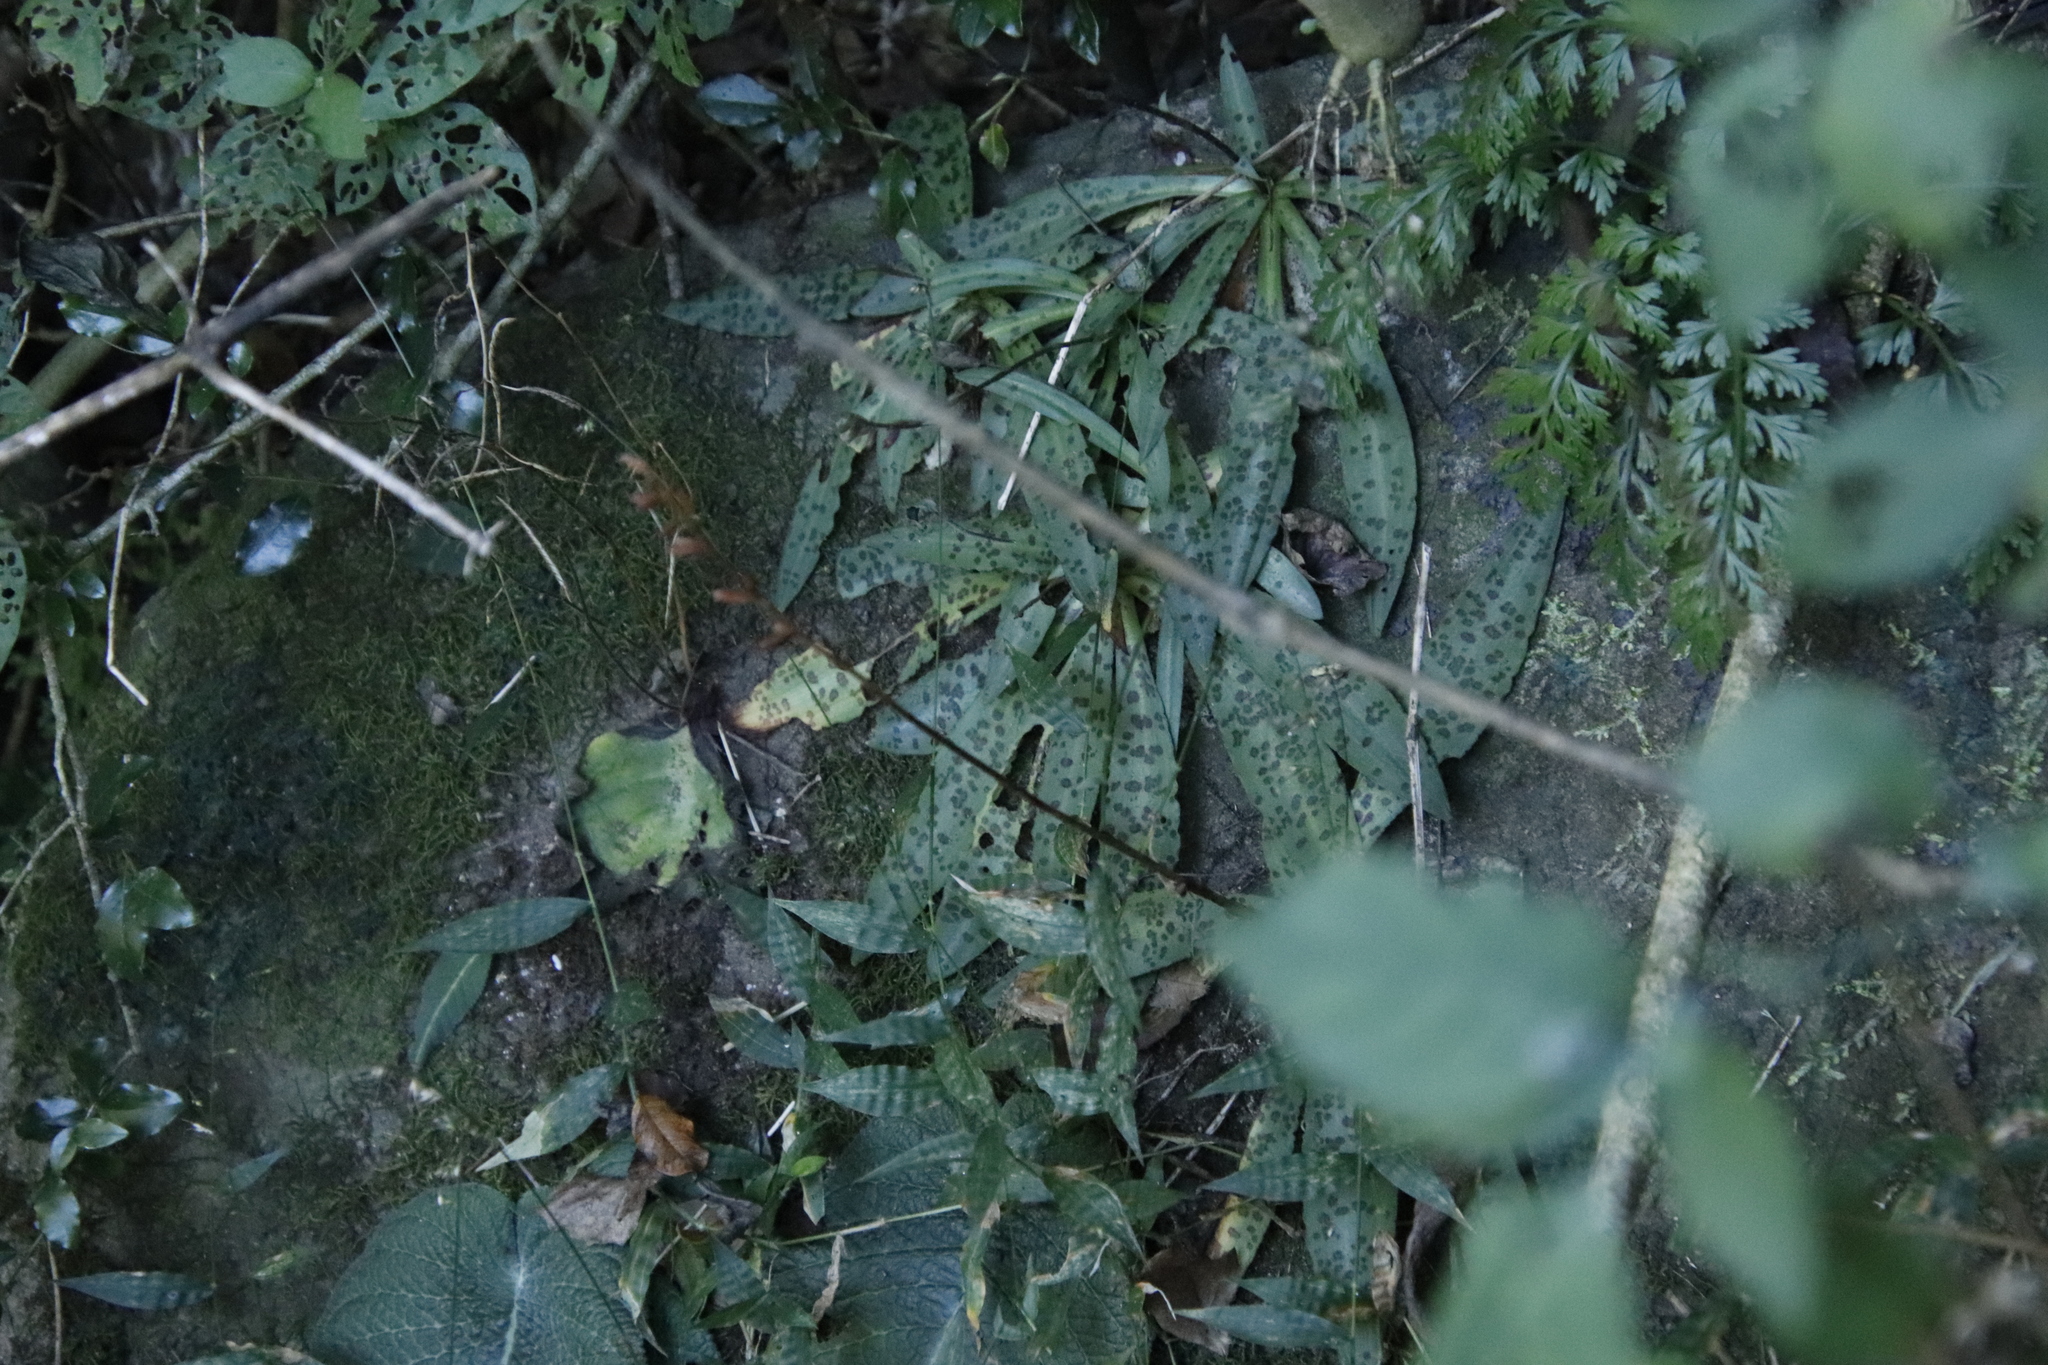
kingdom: Plantae
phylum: Tracheophyta
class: Liliopsida
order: Asparagales
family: Orchidaceae
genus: Stenoglottis
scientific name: Stenoglottis fimbriata
